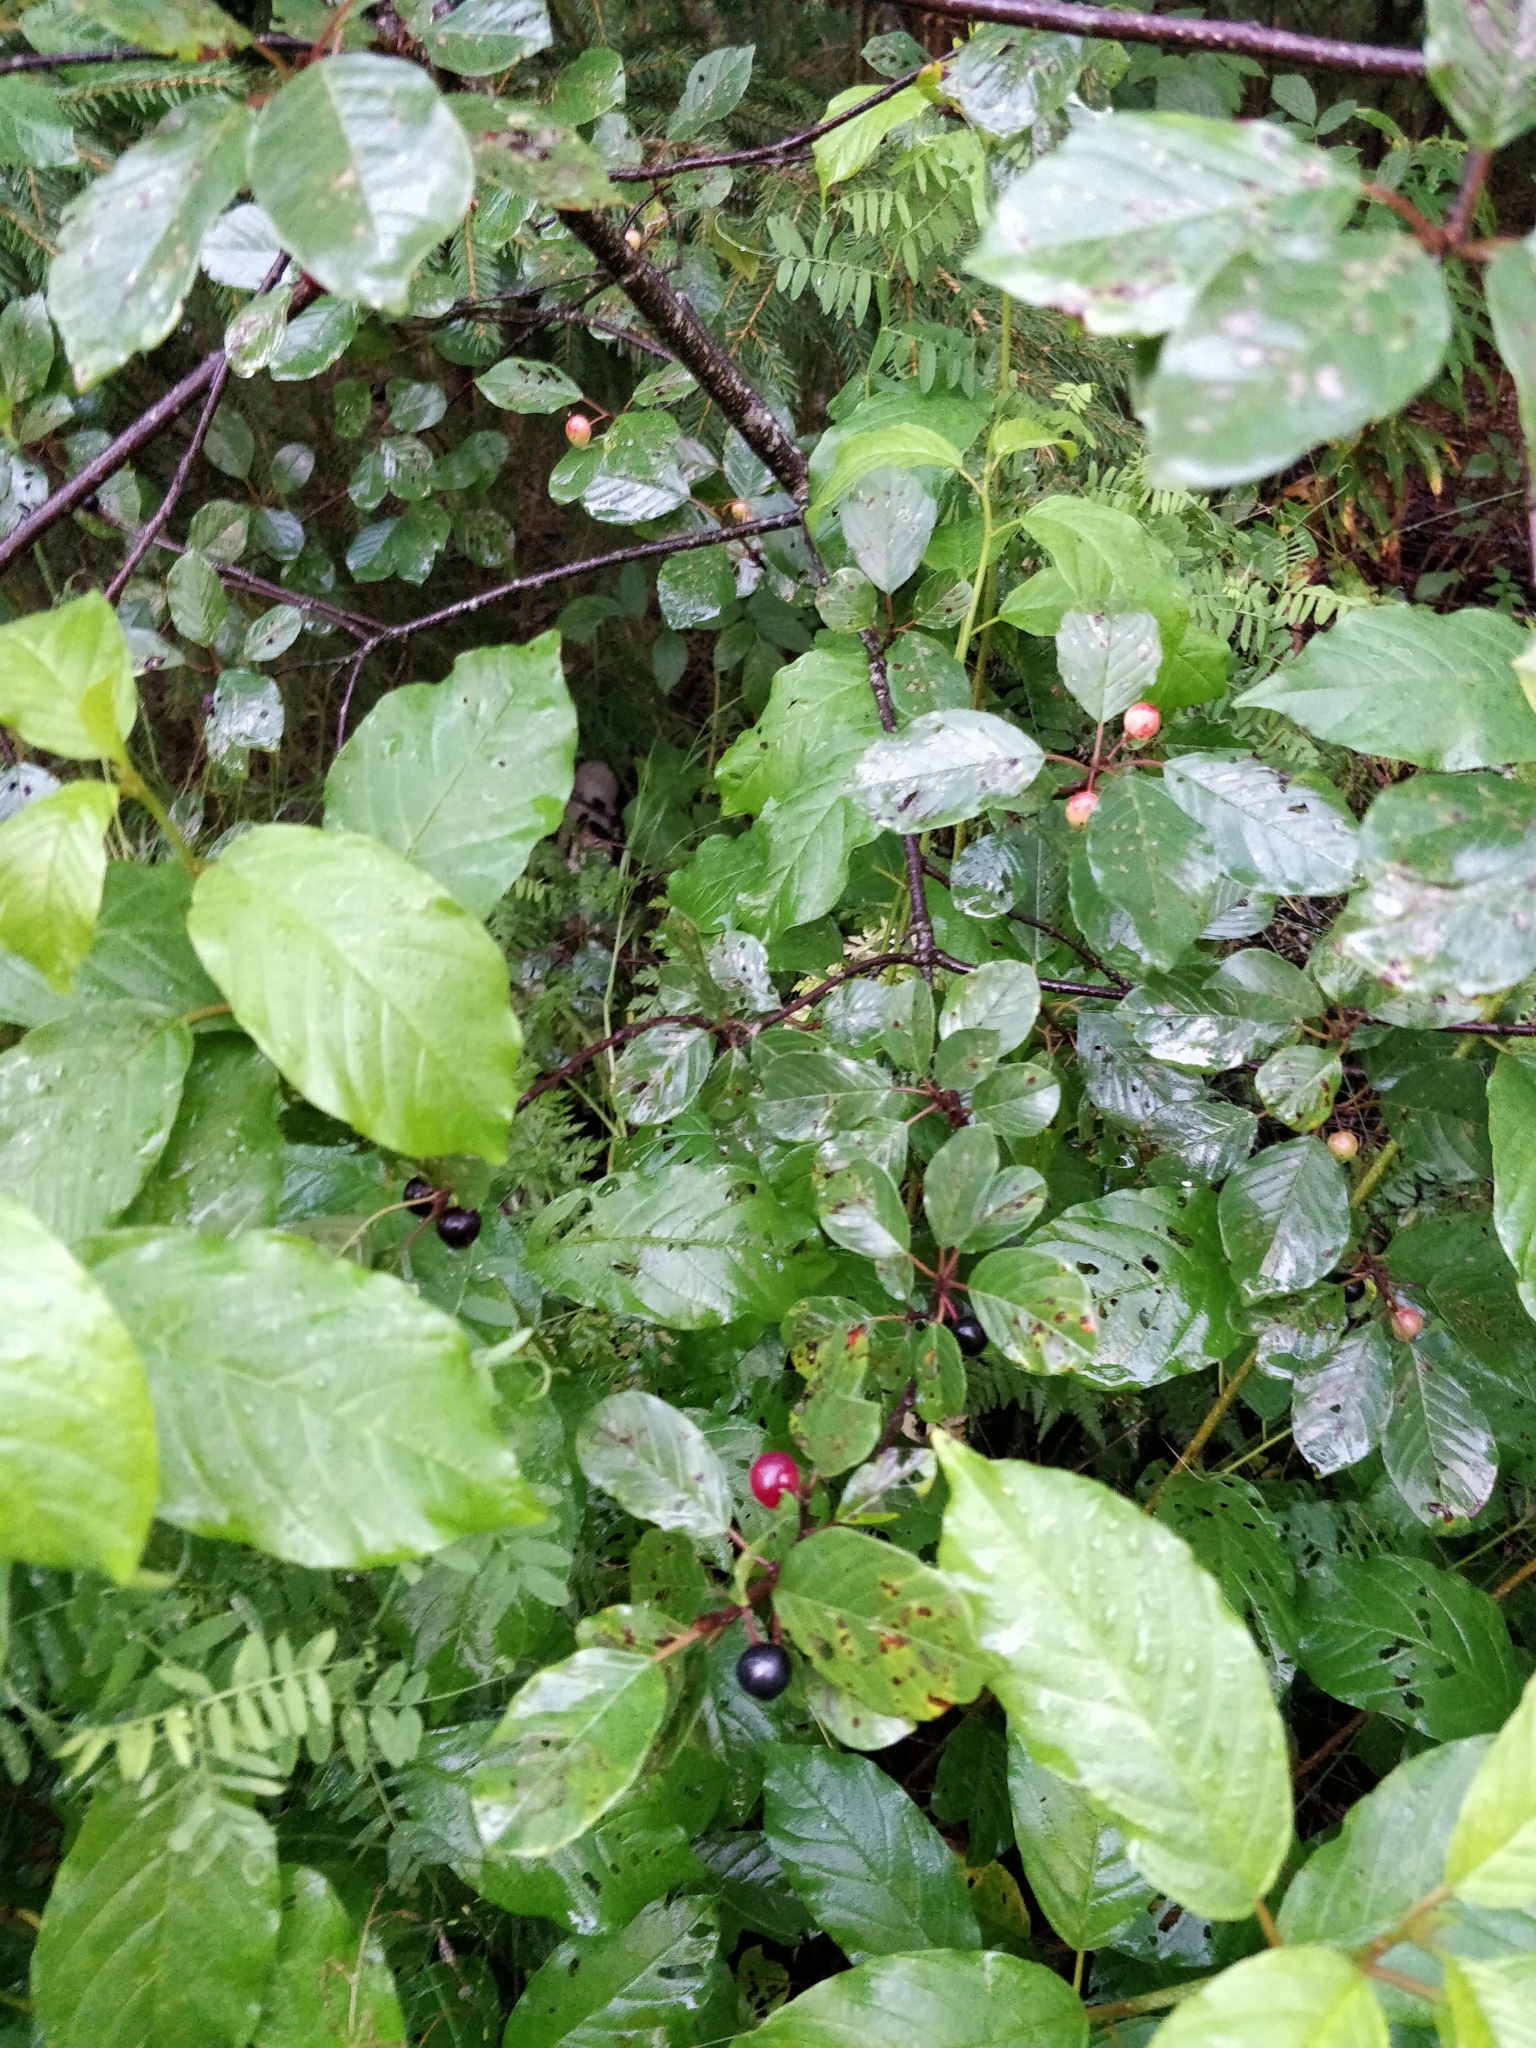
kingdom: Plantae
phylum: Tracheophyta
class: Magnoliopsida
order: Rosales
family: Rhamnaceae
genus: Frangula
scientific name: Frangula alnus
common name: Alder buckthorn
